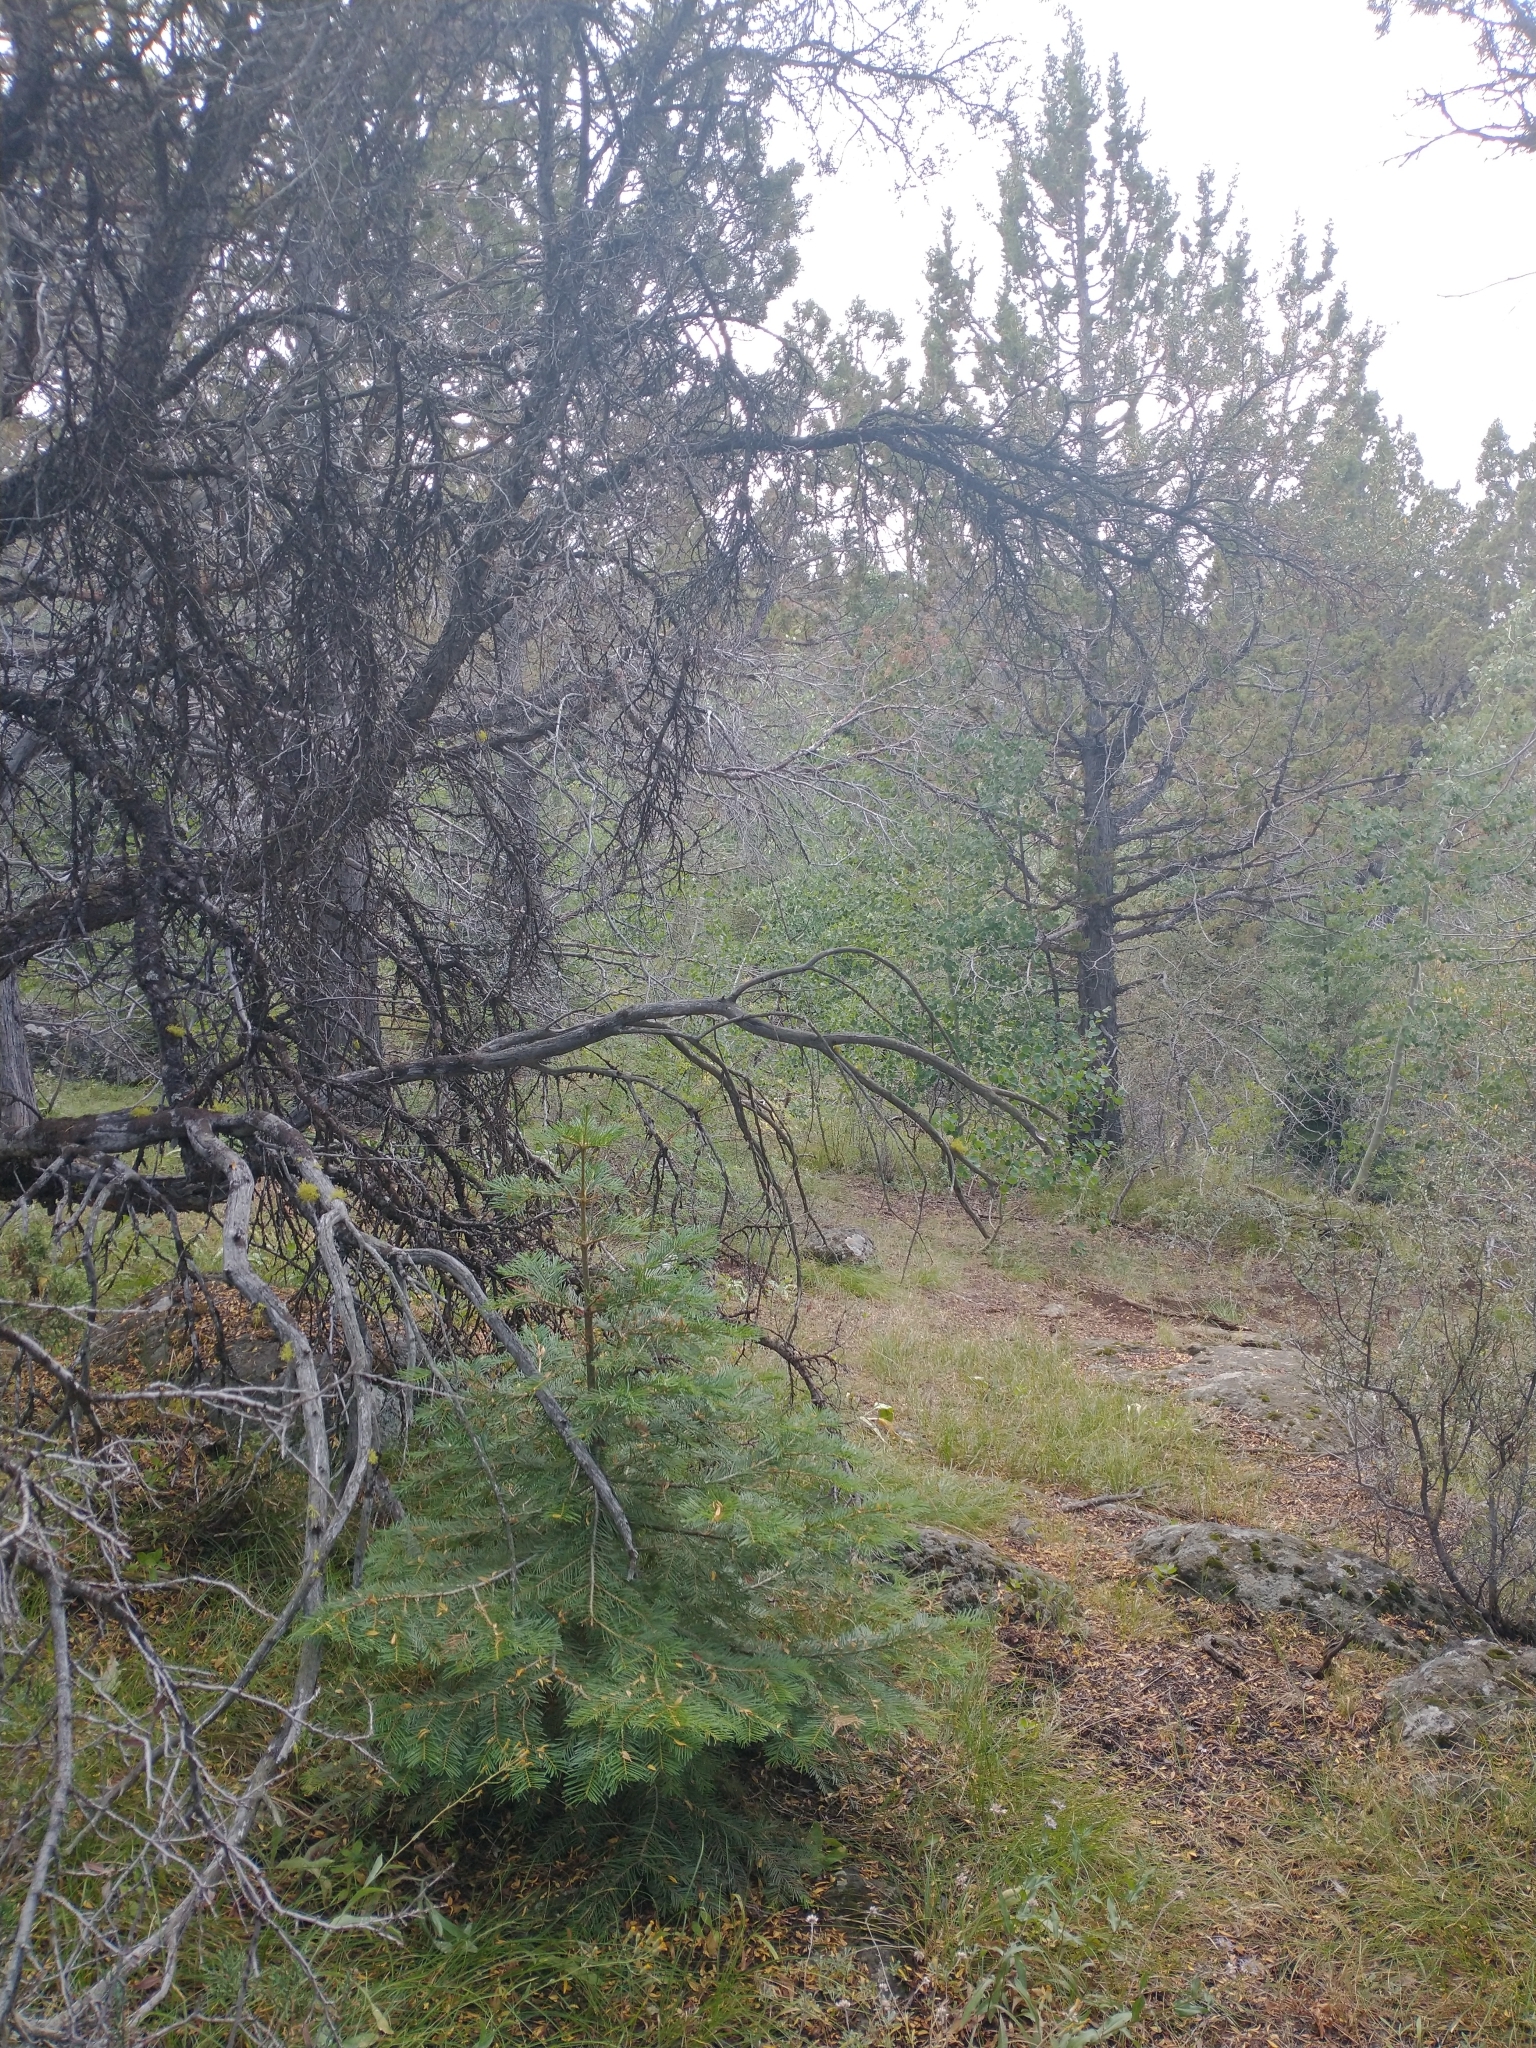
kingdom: Plantae
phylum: Tracheophyta
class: Magnoliopsida
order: Rosales
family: Rosaceae
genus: Cercocarpus
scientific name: Cercocarpus ledifolius
